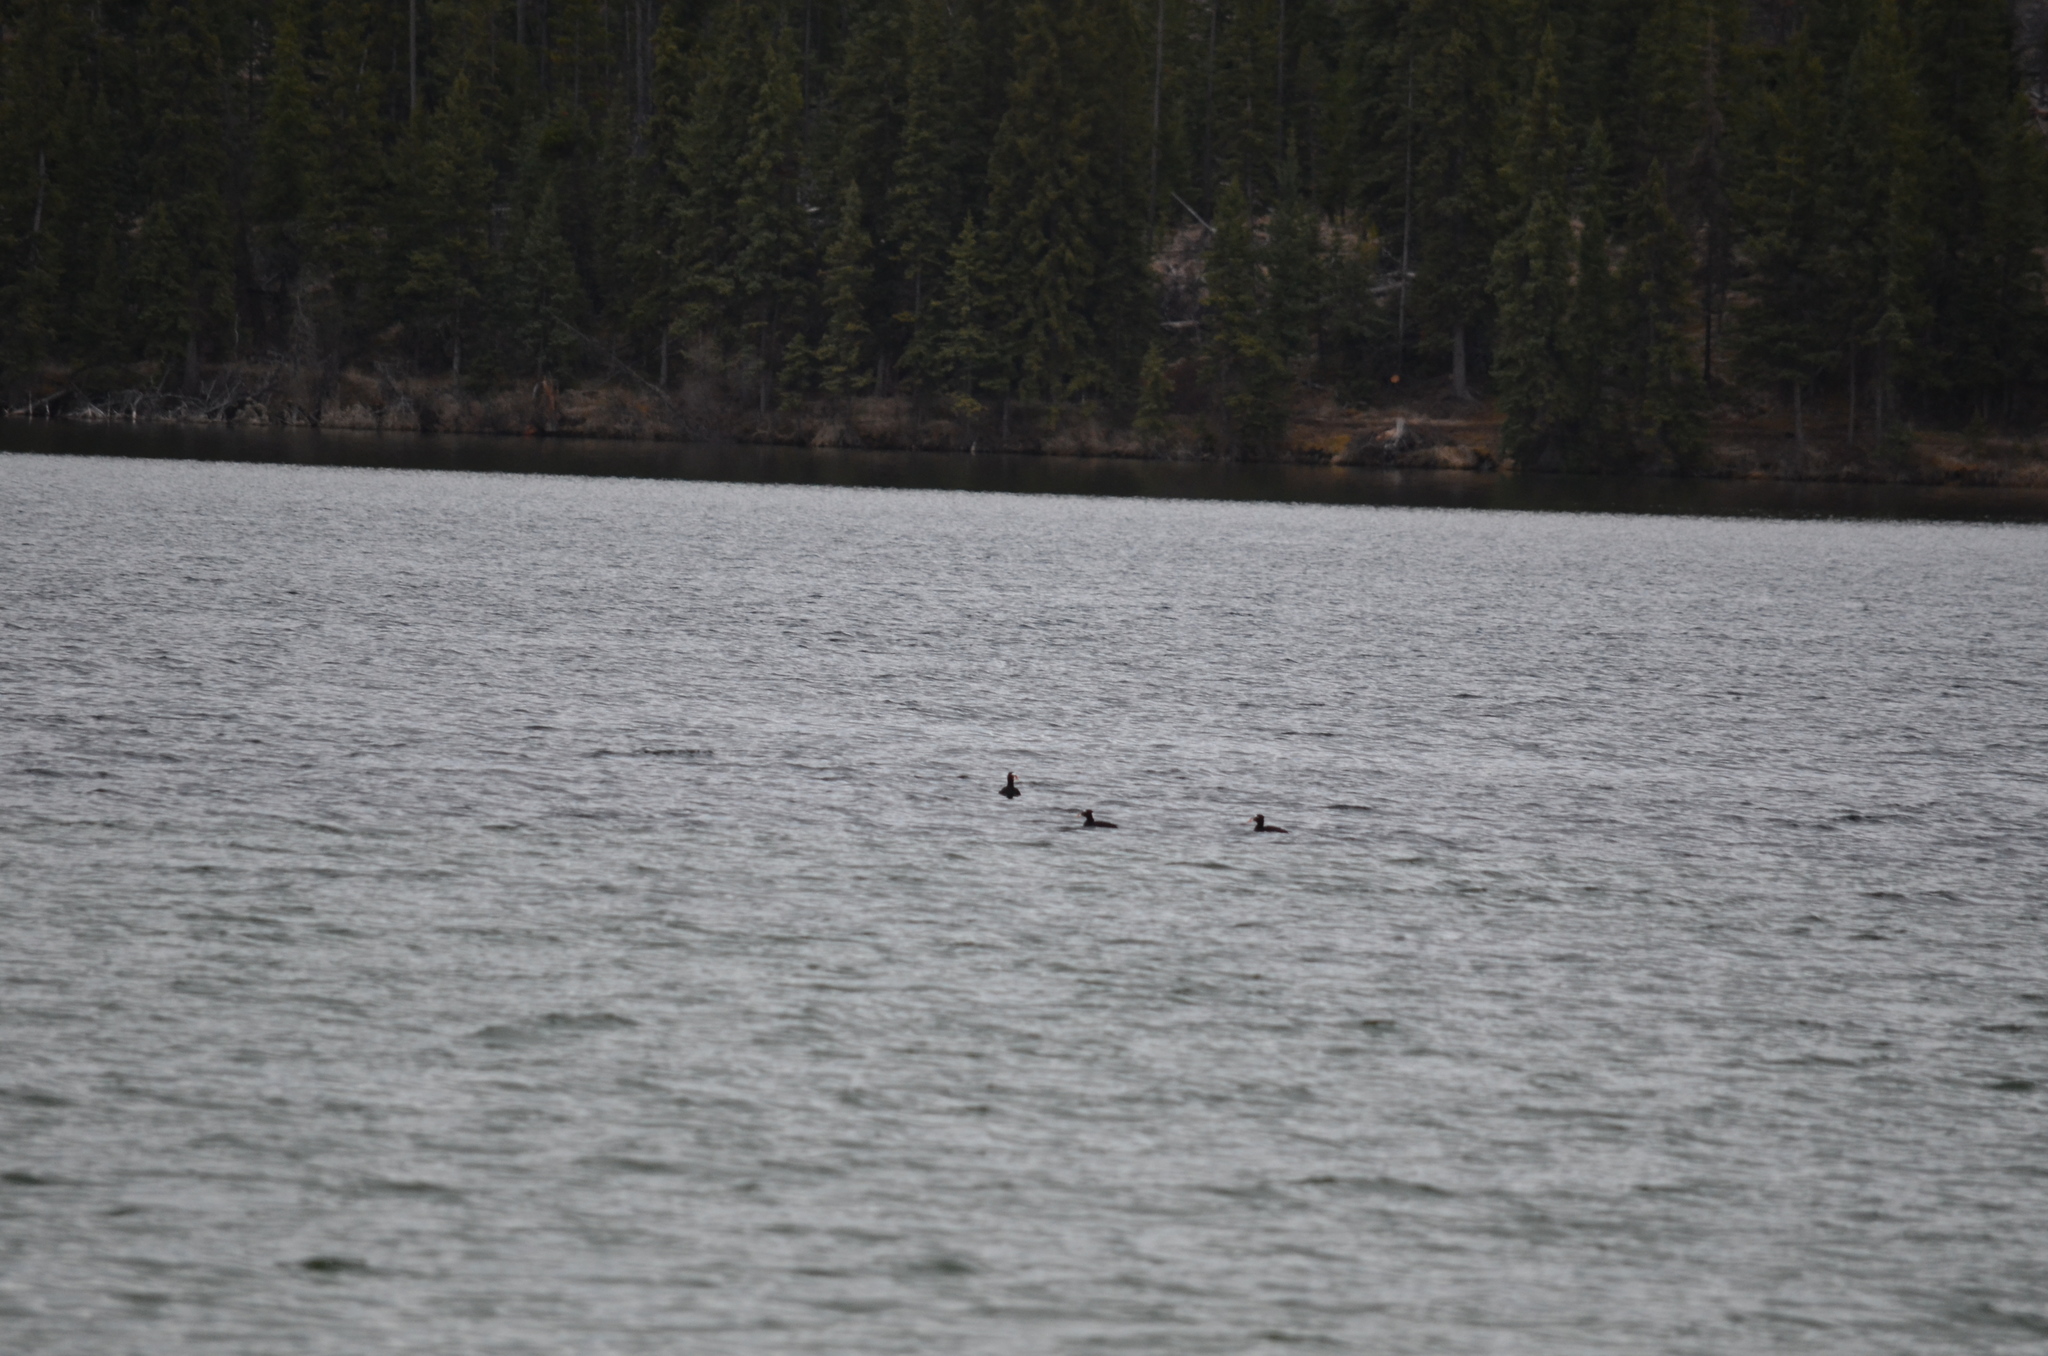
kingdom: Animalia
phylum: Chordata
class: Aves
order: Anseriformes
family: Anatidae
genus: Melanitta
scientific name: Melanitta perspicillata
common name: Surf scoter
